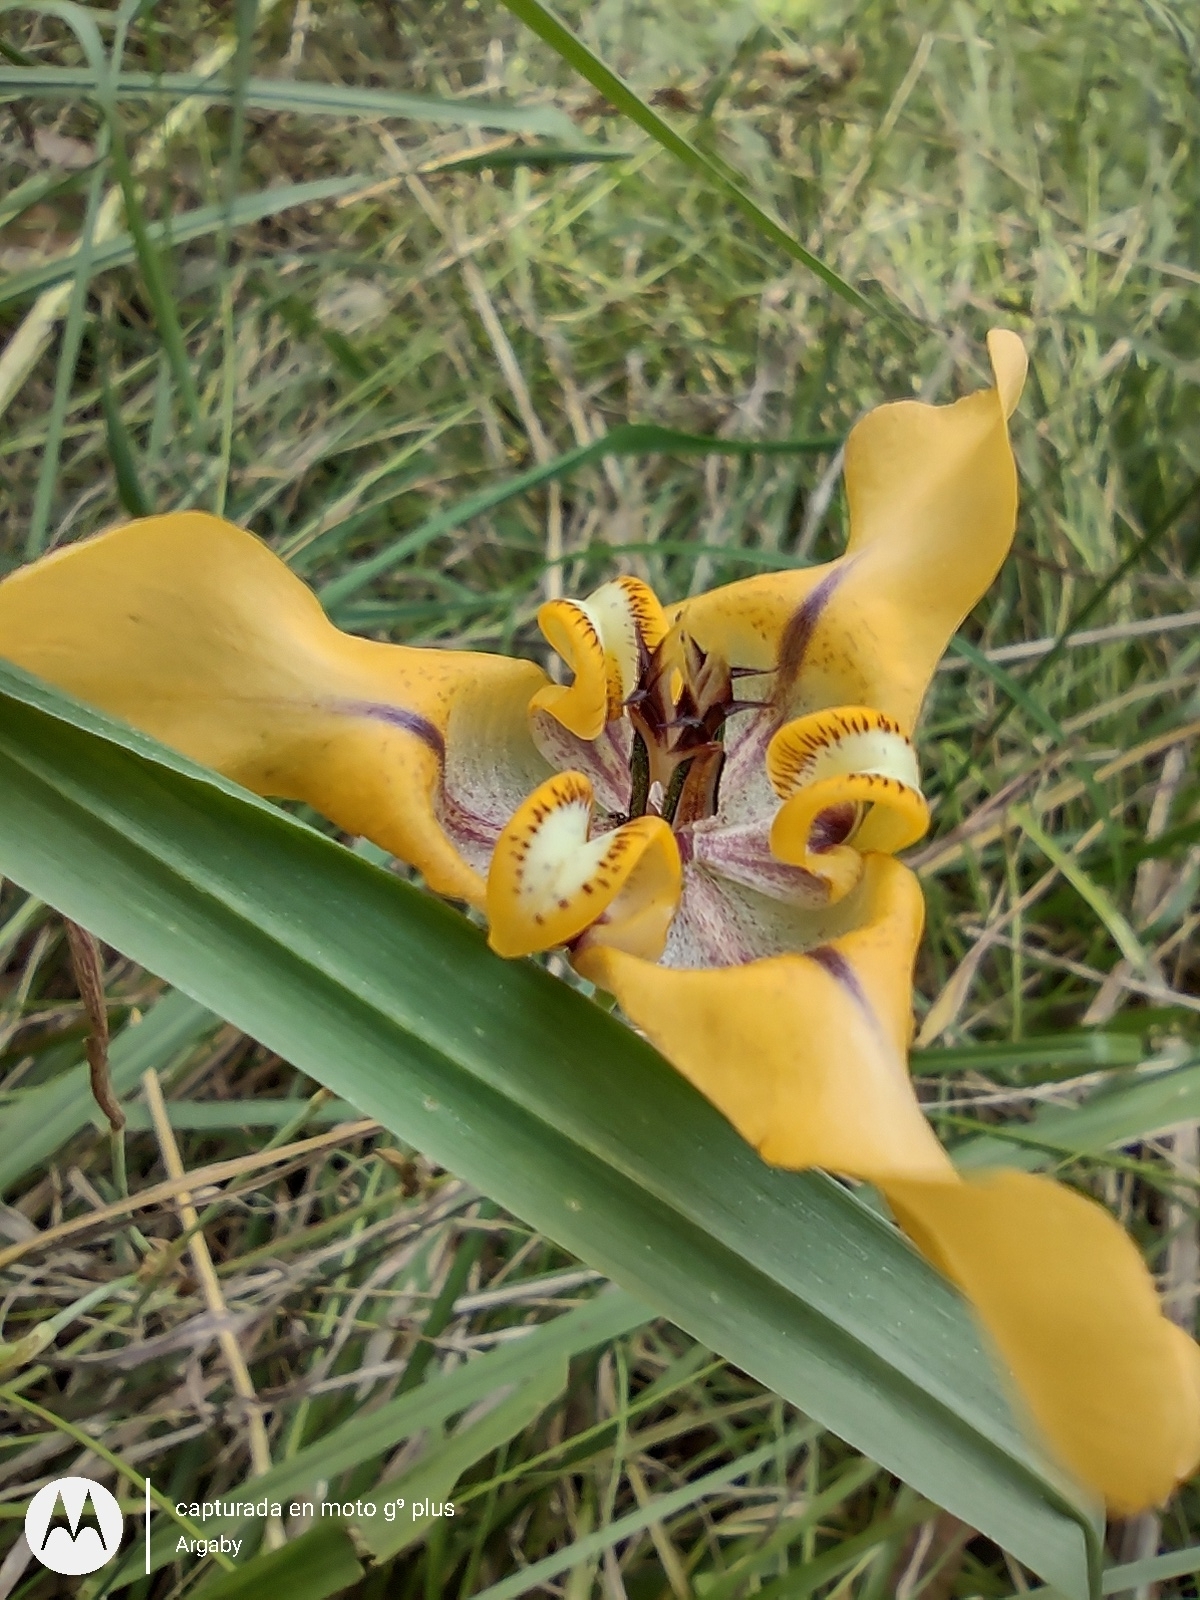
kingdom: Plantae
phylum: Tracheophyta
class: Liliopsida
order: Asparagales
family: Iridaceae
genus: Cypella
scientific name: Cypella herbertii
